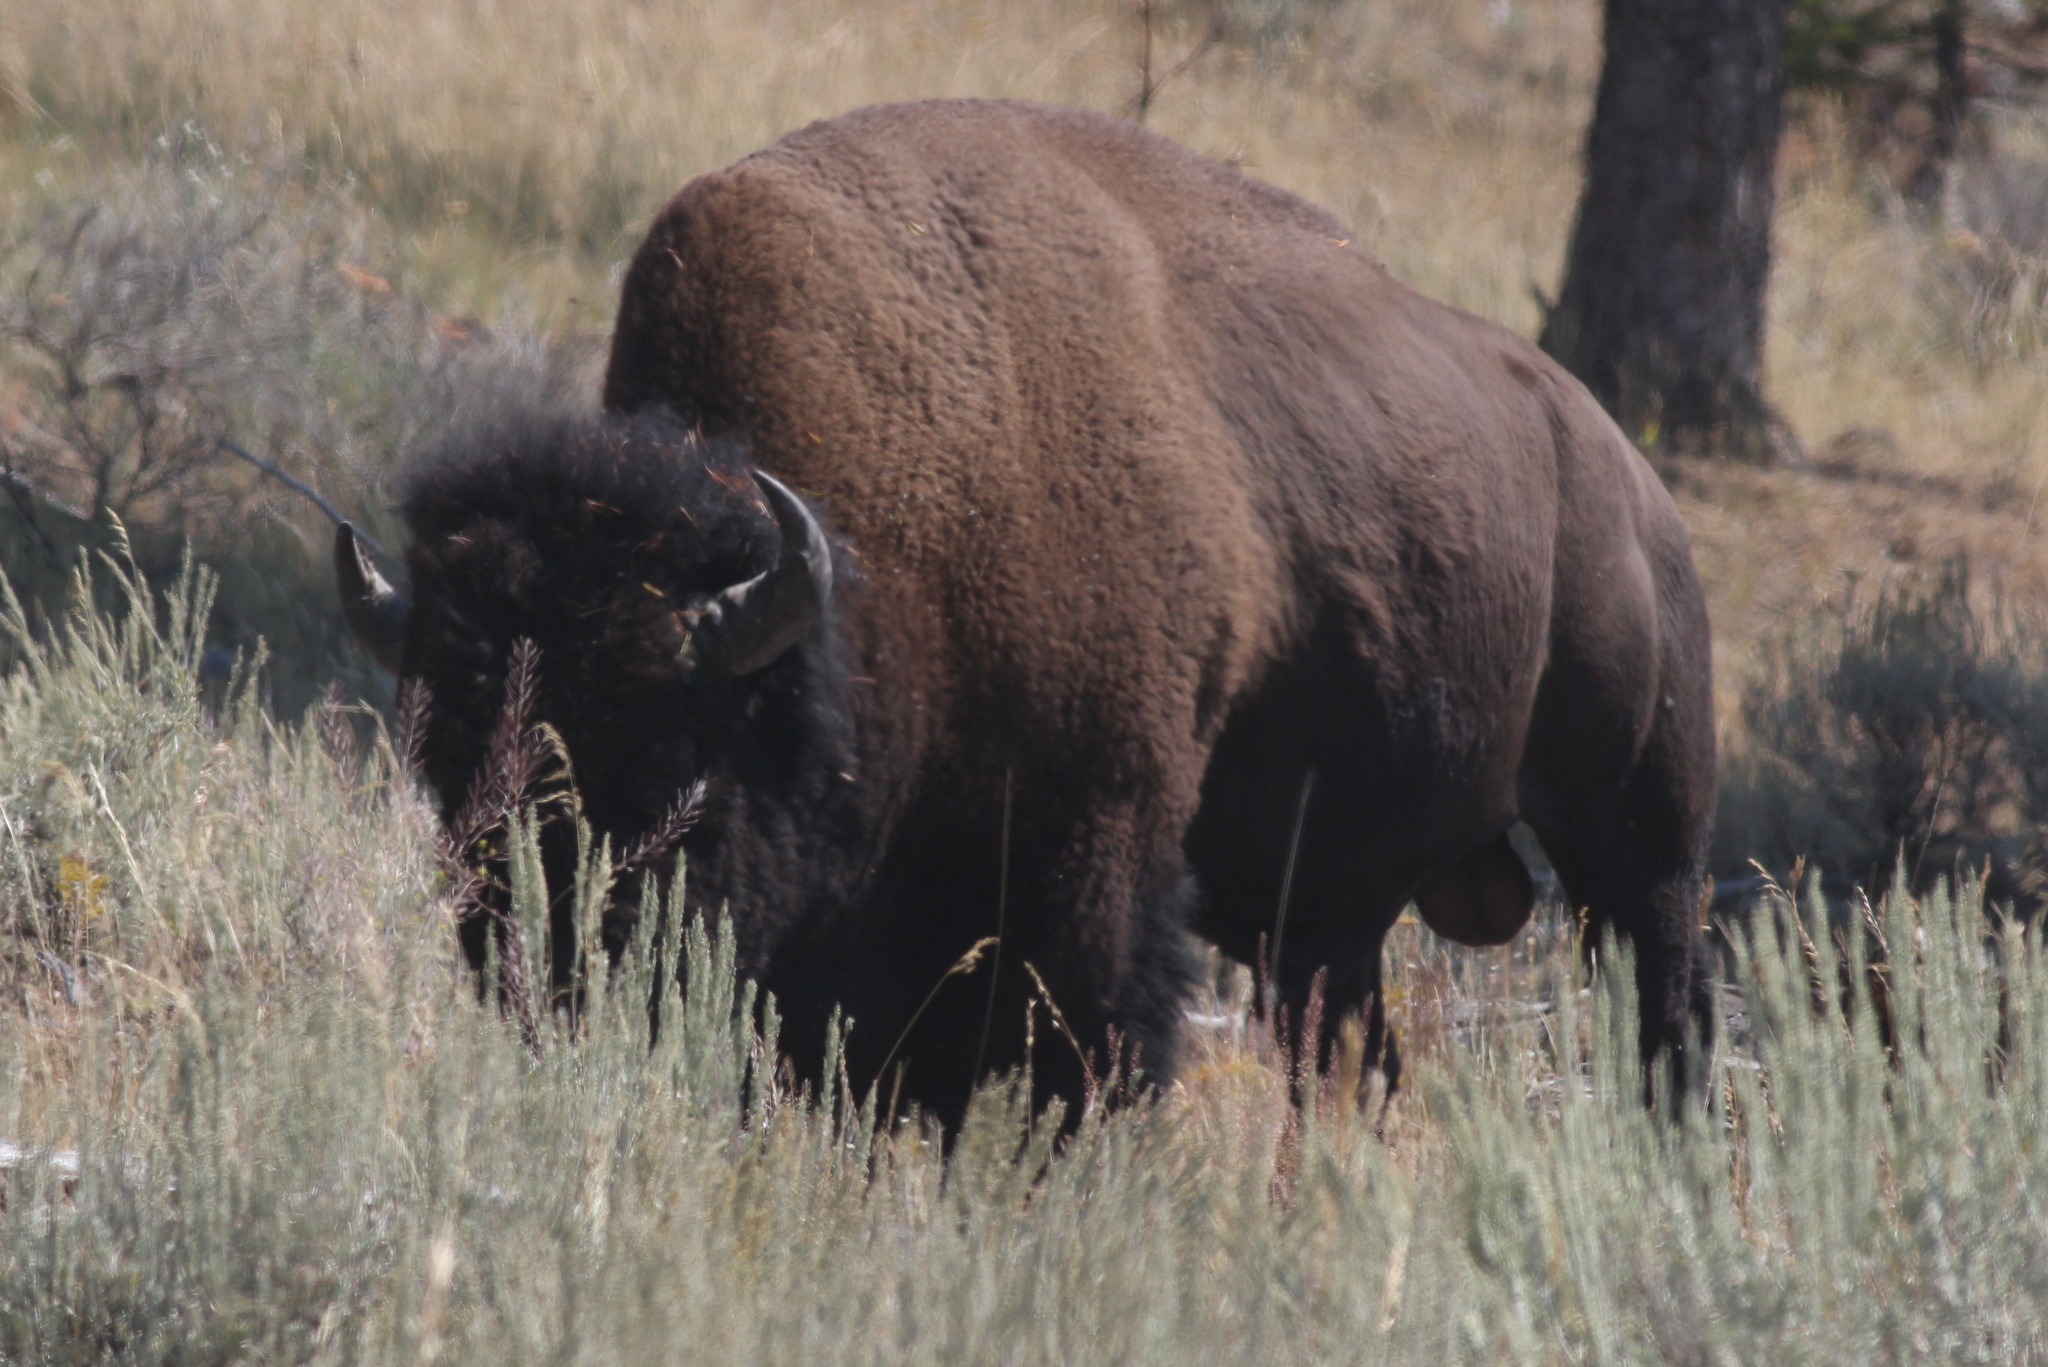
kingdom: Animalia
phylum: Chordata
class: Mammalia
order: Artiodactyla
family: Bovidae
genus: Bison
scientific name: Bison bison
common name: American bison
